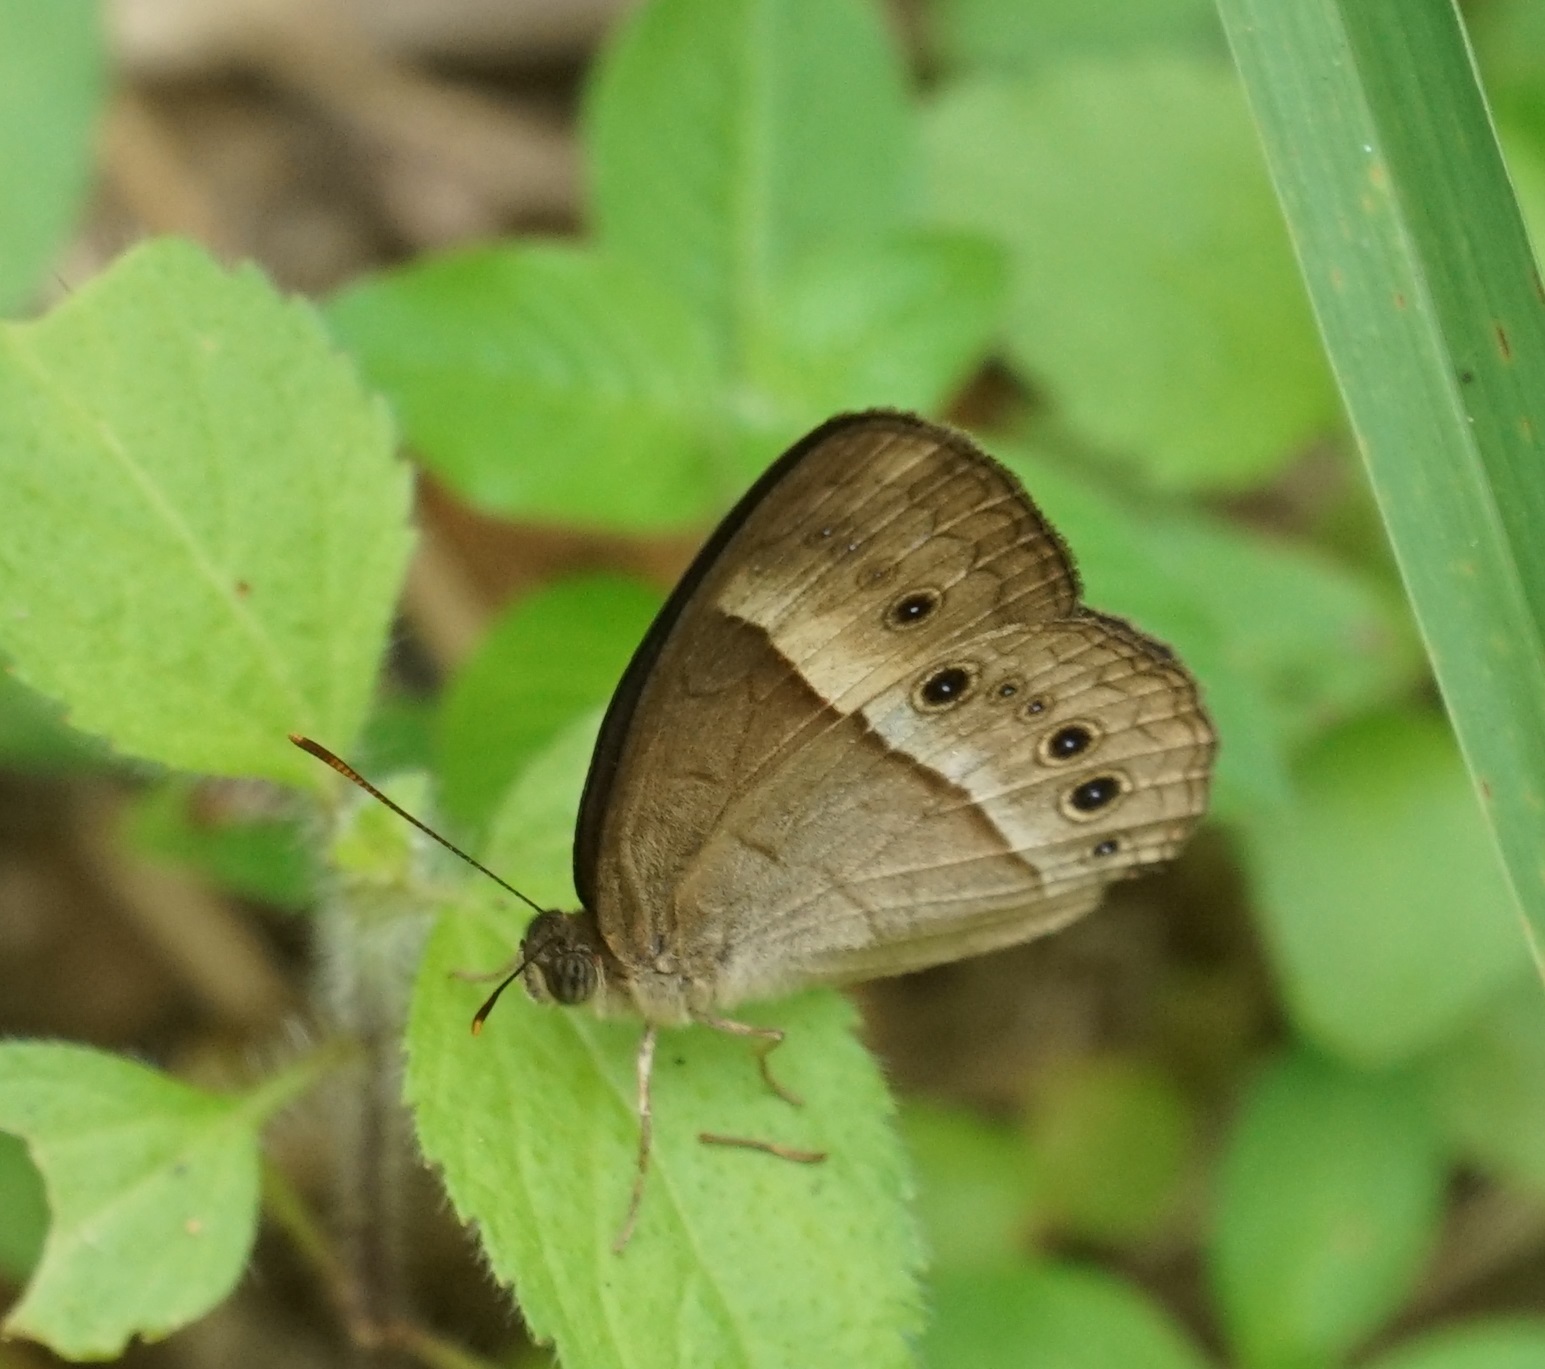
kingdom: Animalia
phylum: Arthropoda
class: Insecta
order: Lepidoptera
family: Nymphalidae
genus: Mycalesis
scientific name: Mycalesis terminus
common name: Orange bushbrown
